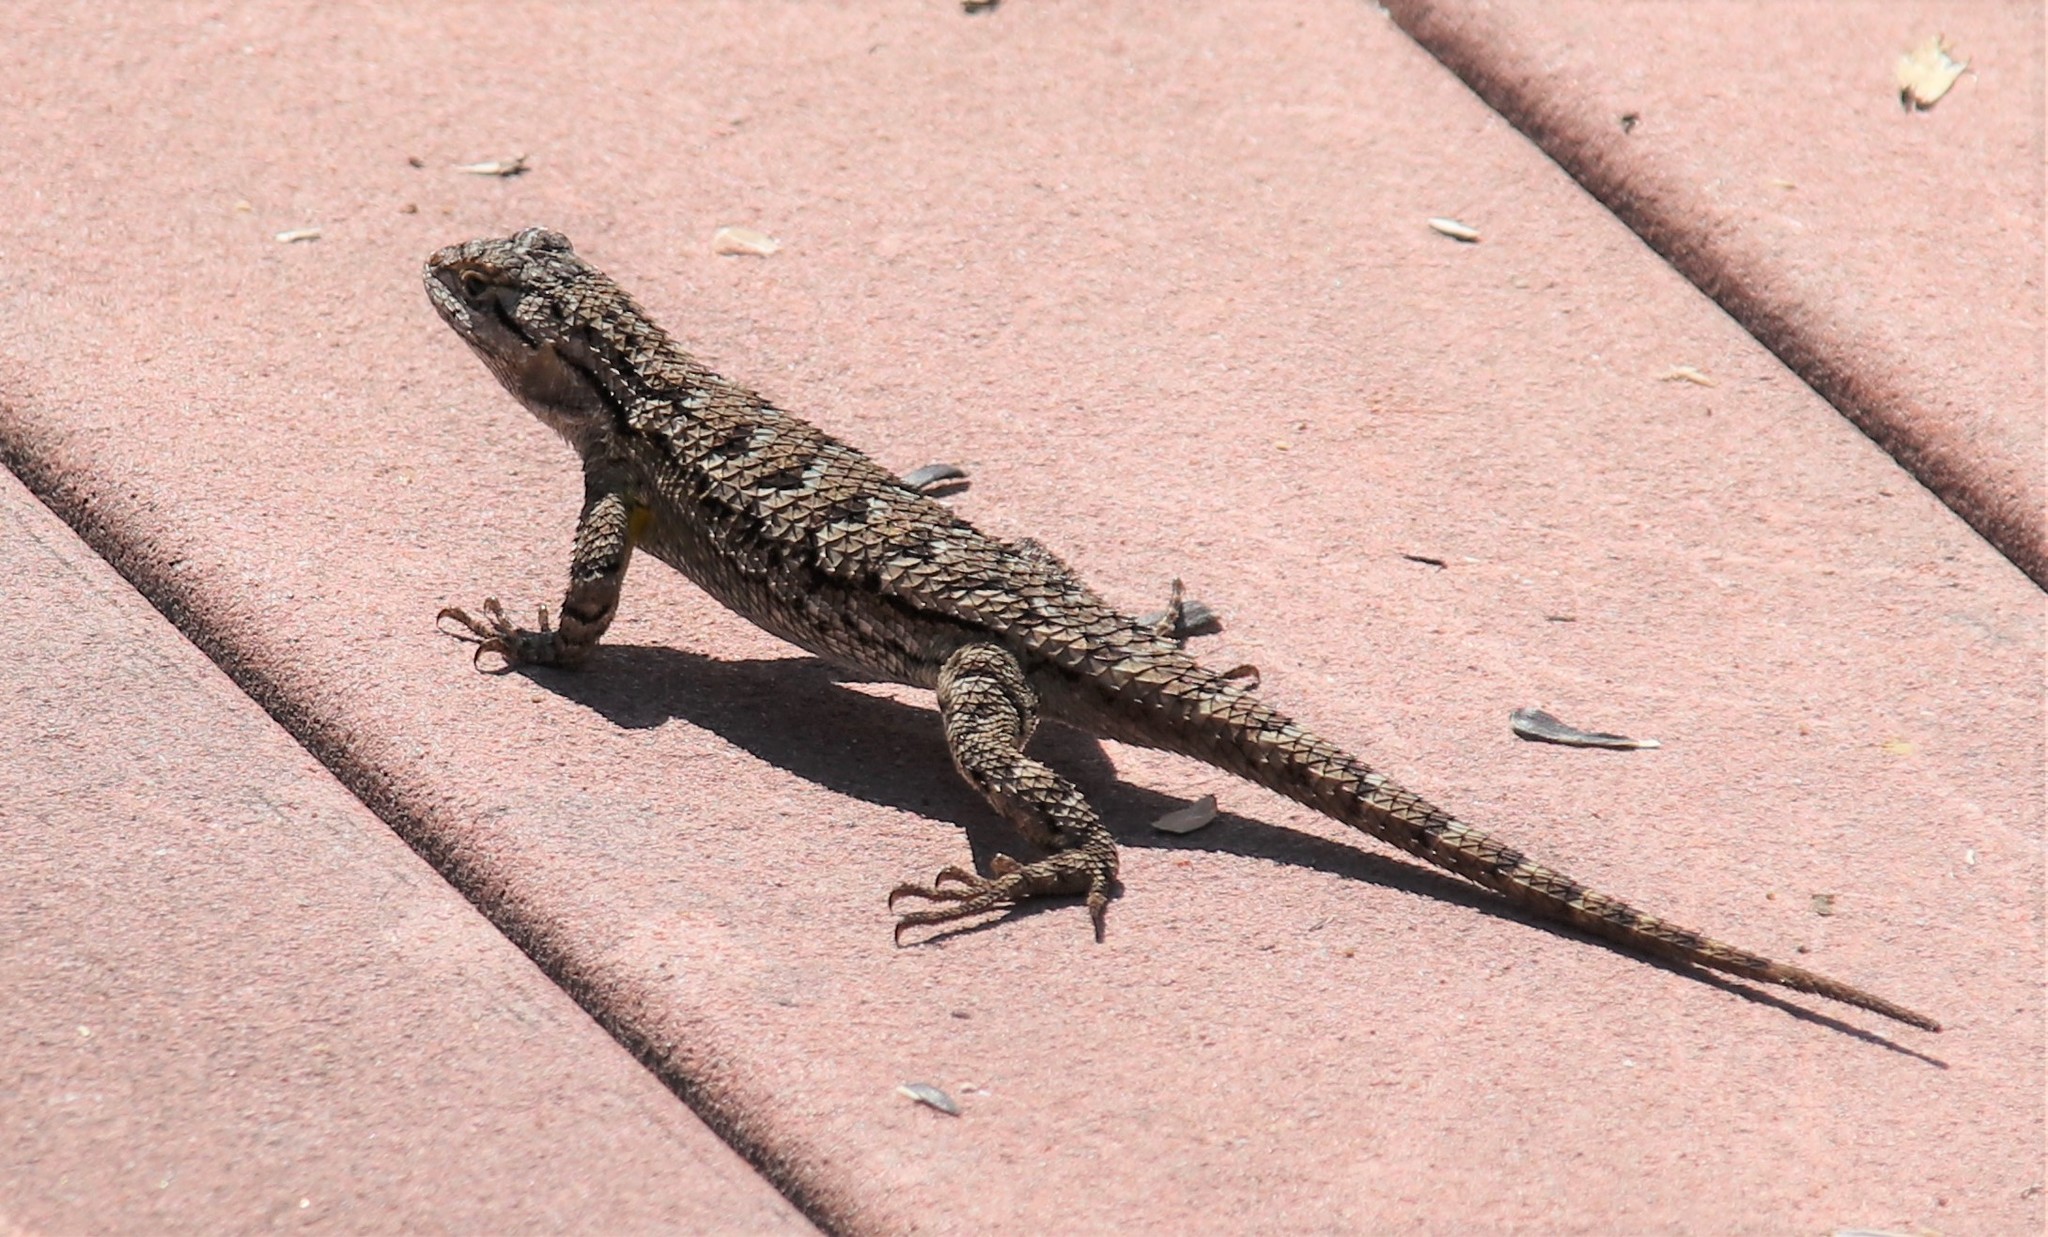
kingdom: Animalia
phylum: Chordata
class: Squamata
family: Phrynosomatidae
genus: Sceloporus
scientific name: Sceloporus occidentalis
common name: Western fence lizard
